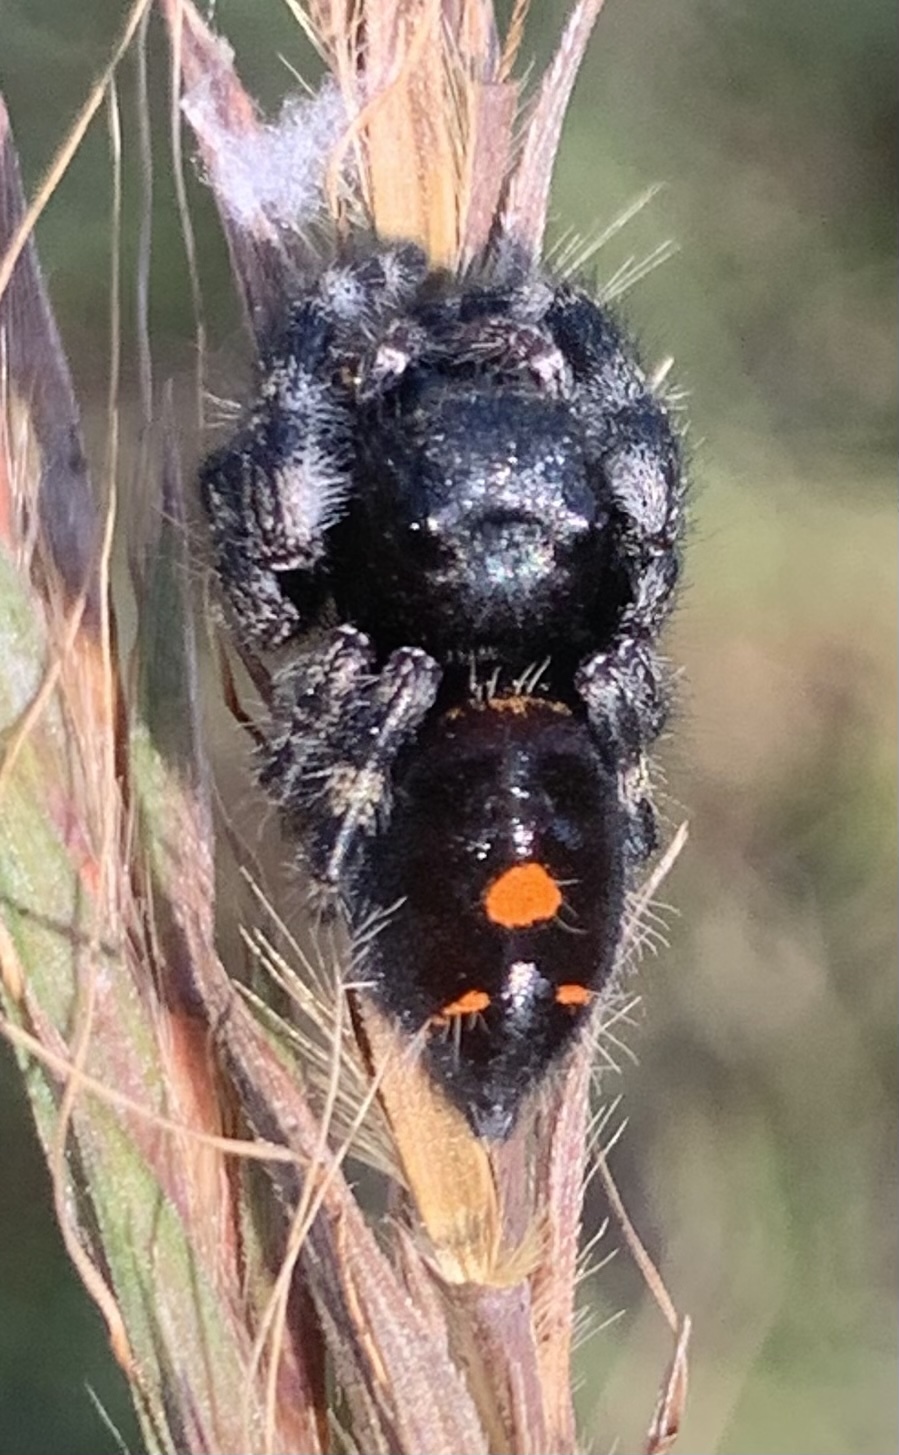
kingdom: Animalia
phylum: Arthropoda
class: Arachnida
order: Araneae
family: Salticidae
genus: Phidippus
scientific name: Phidippus audax
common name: Bold jumper
